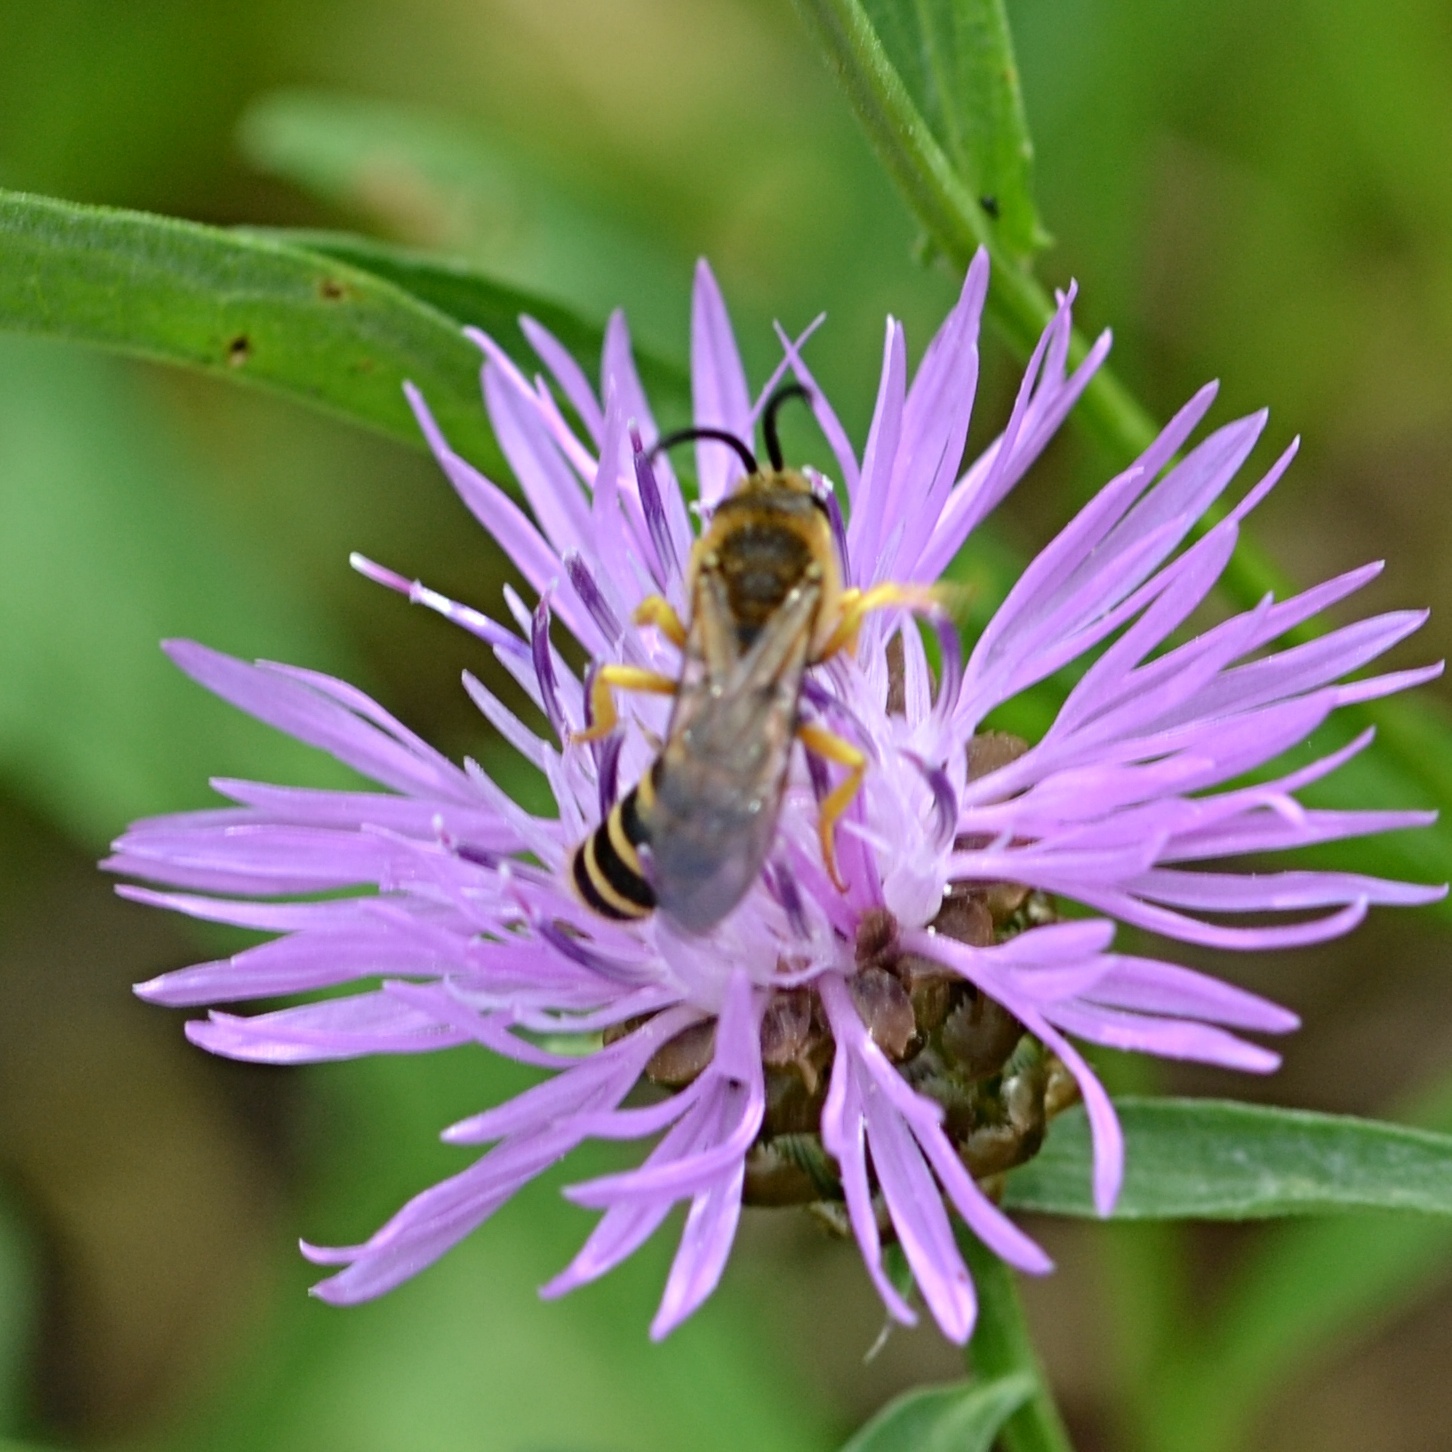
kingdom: Animalia
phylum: Arthropoda
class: Insecta
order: Hymenoptera
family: Halictidae
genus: Halictus
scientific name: Halictus scabiosae
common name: Great banded furrow bee
